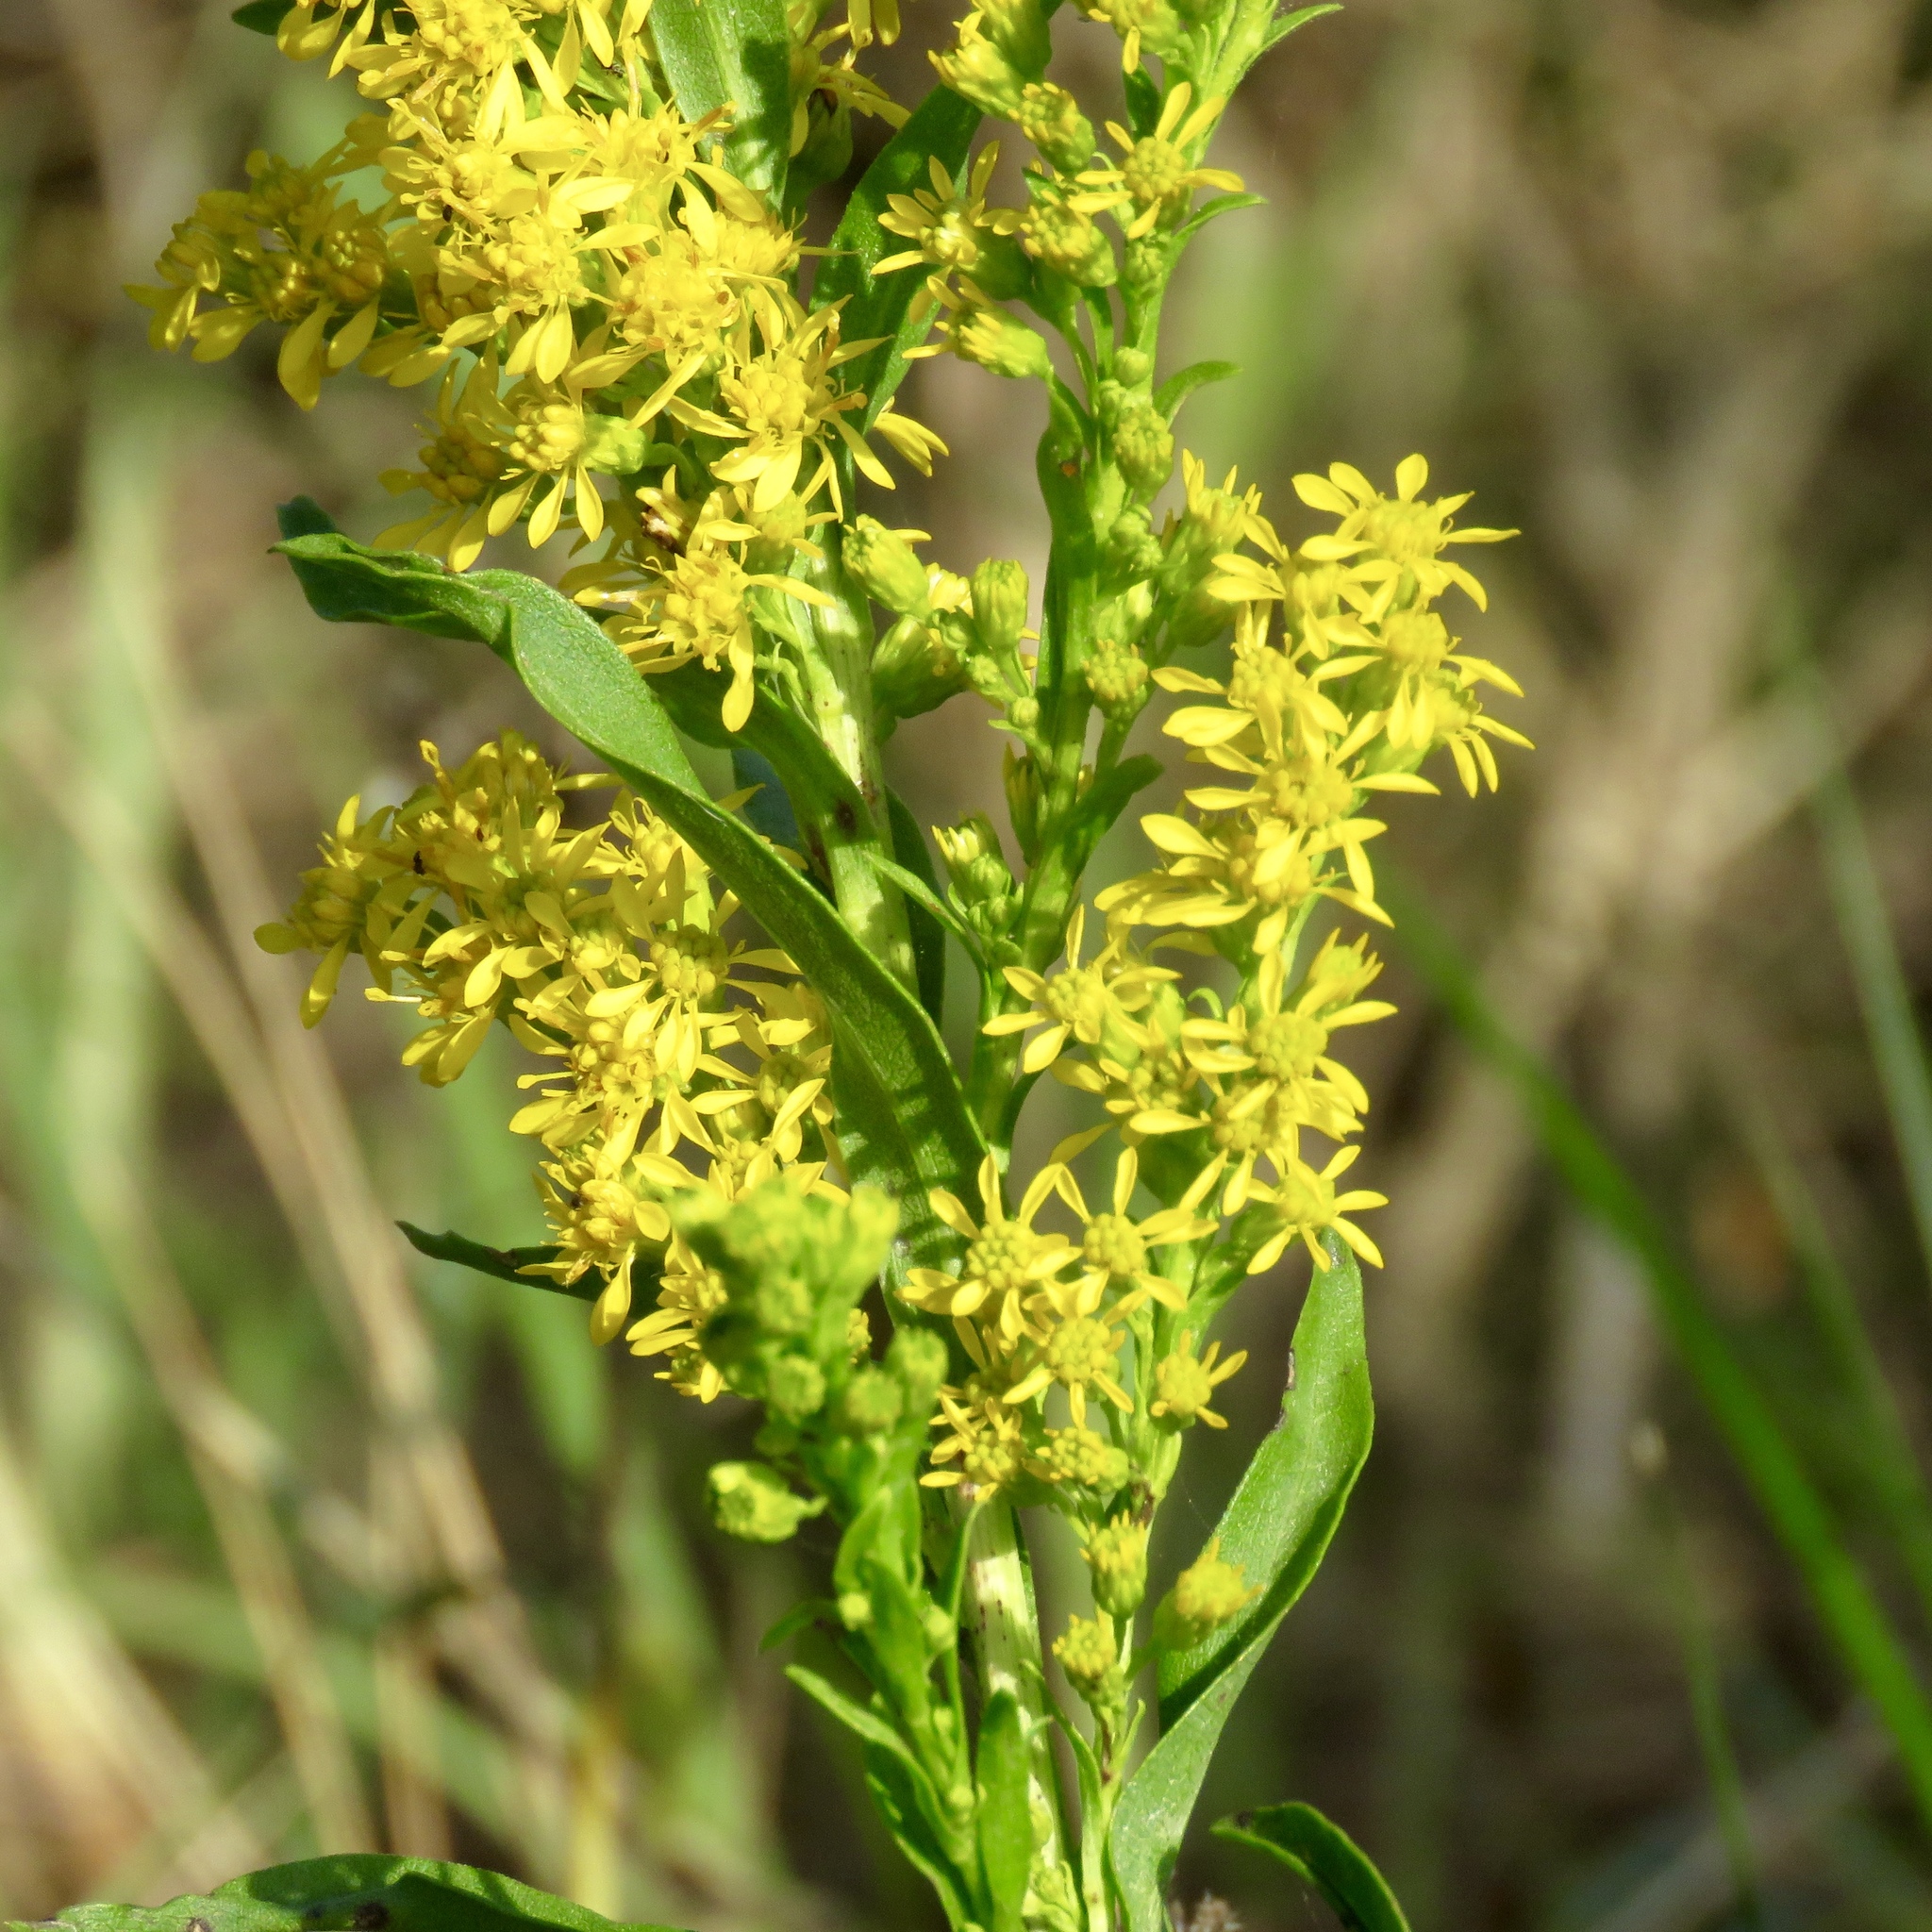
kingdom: Plantae
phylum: Tracheophyta
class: Magnoliopsida
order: Asterales
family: Asteraceae
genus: Solidago
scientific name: Solidago mexicana
